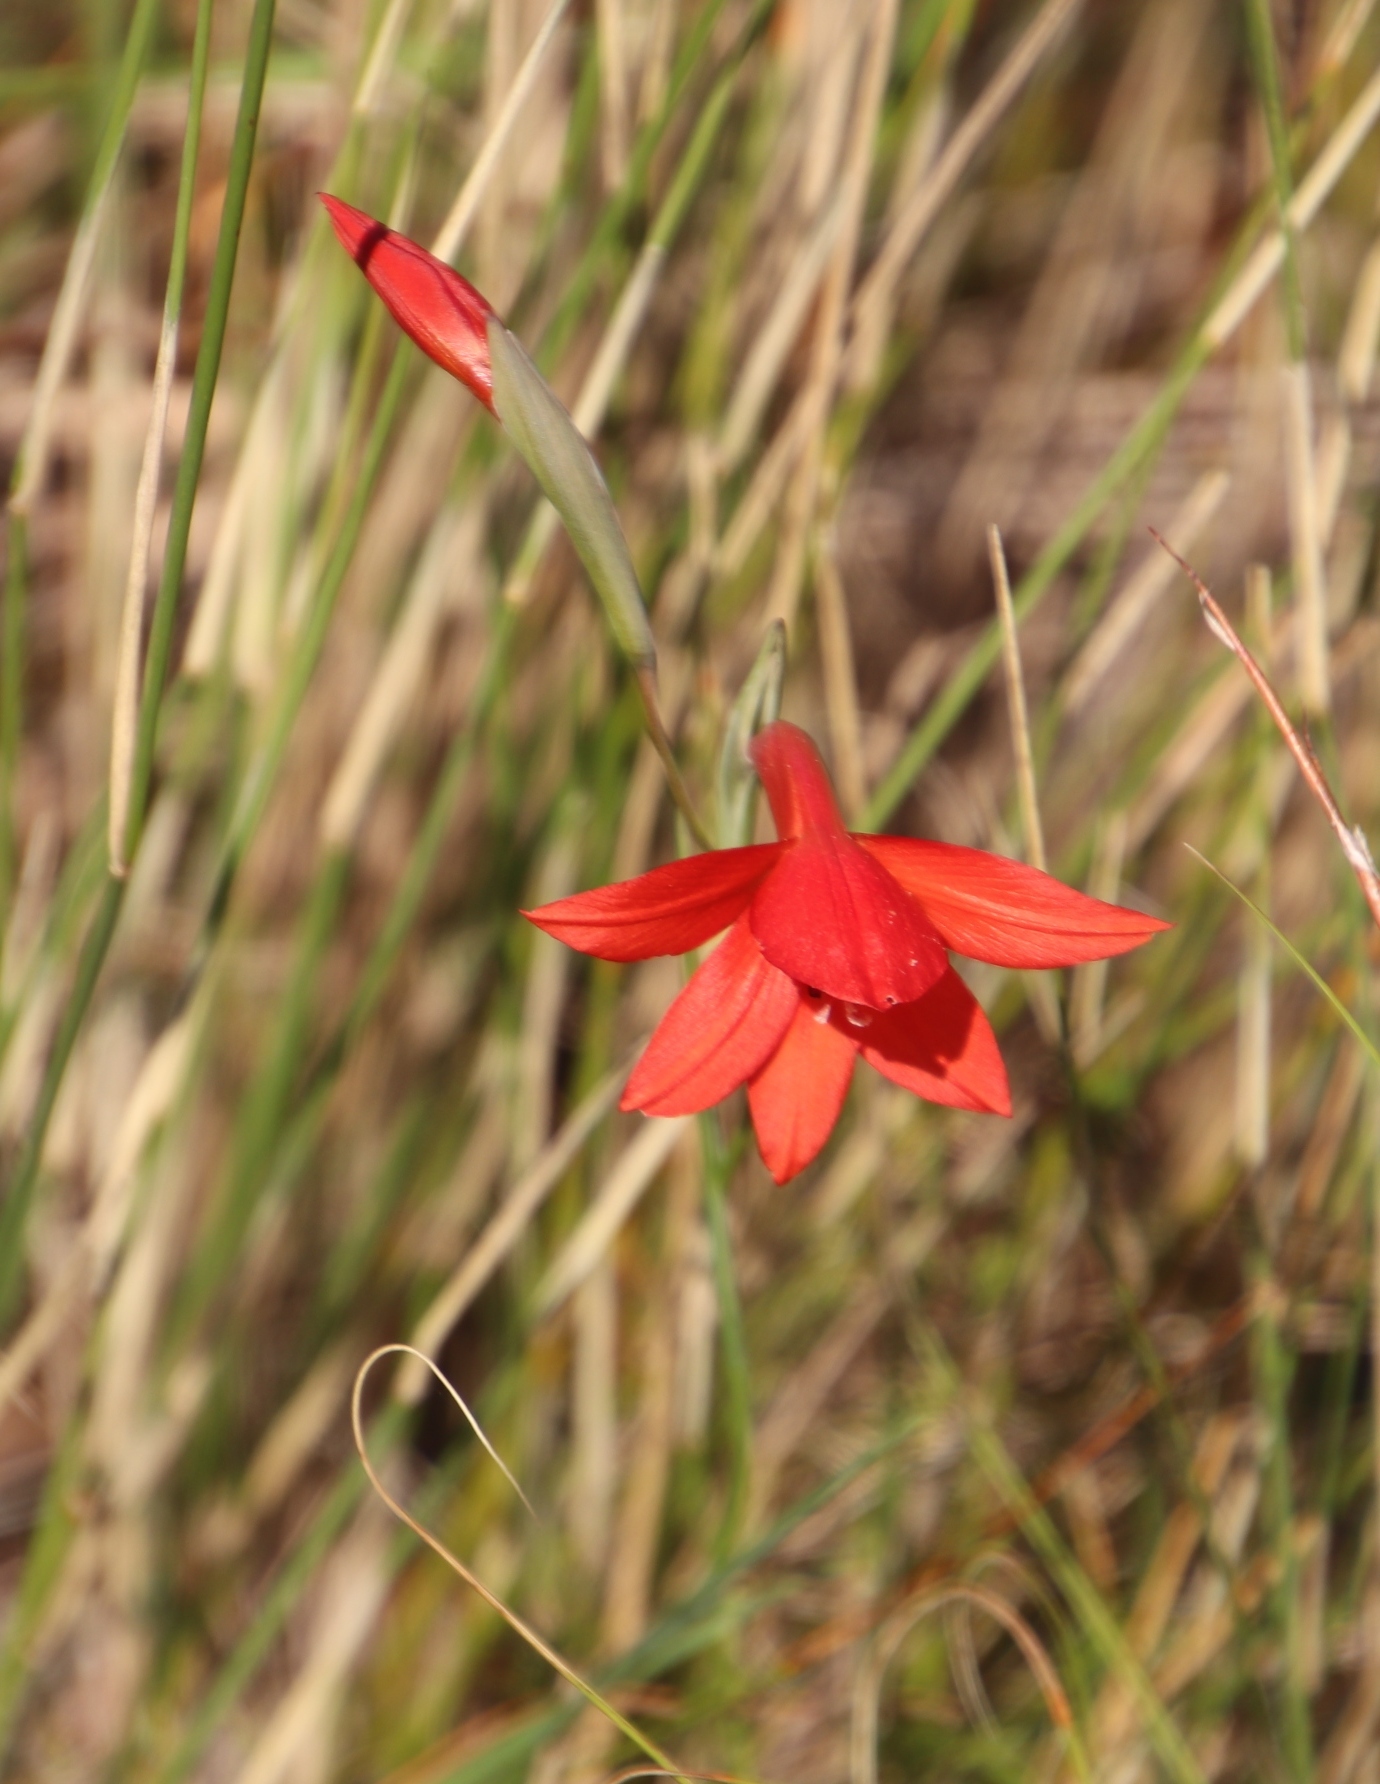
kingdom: Plantae
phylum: Tracheophyta
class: Liliopsida
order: Asparagales
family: Iridaceae
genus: Gladiolus
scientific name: Gladiolus priorii
